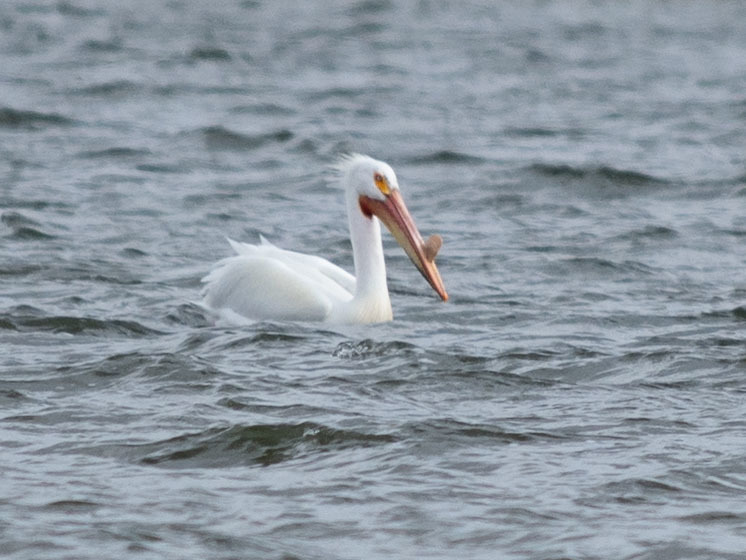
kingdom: Animalia
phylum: Chordata
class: Aves
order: Pelecaniformes
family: Pelecanidae
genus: Pelecanus
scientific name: Pelecanus erythrorhynchos
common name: American white pelican
